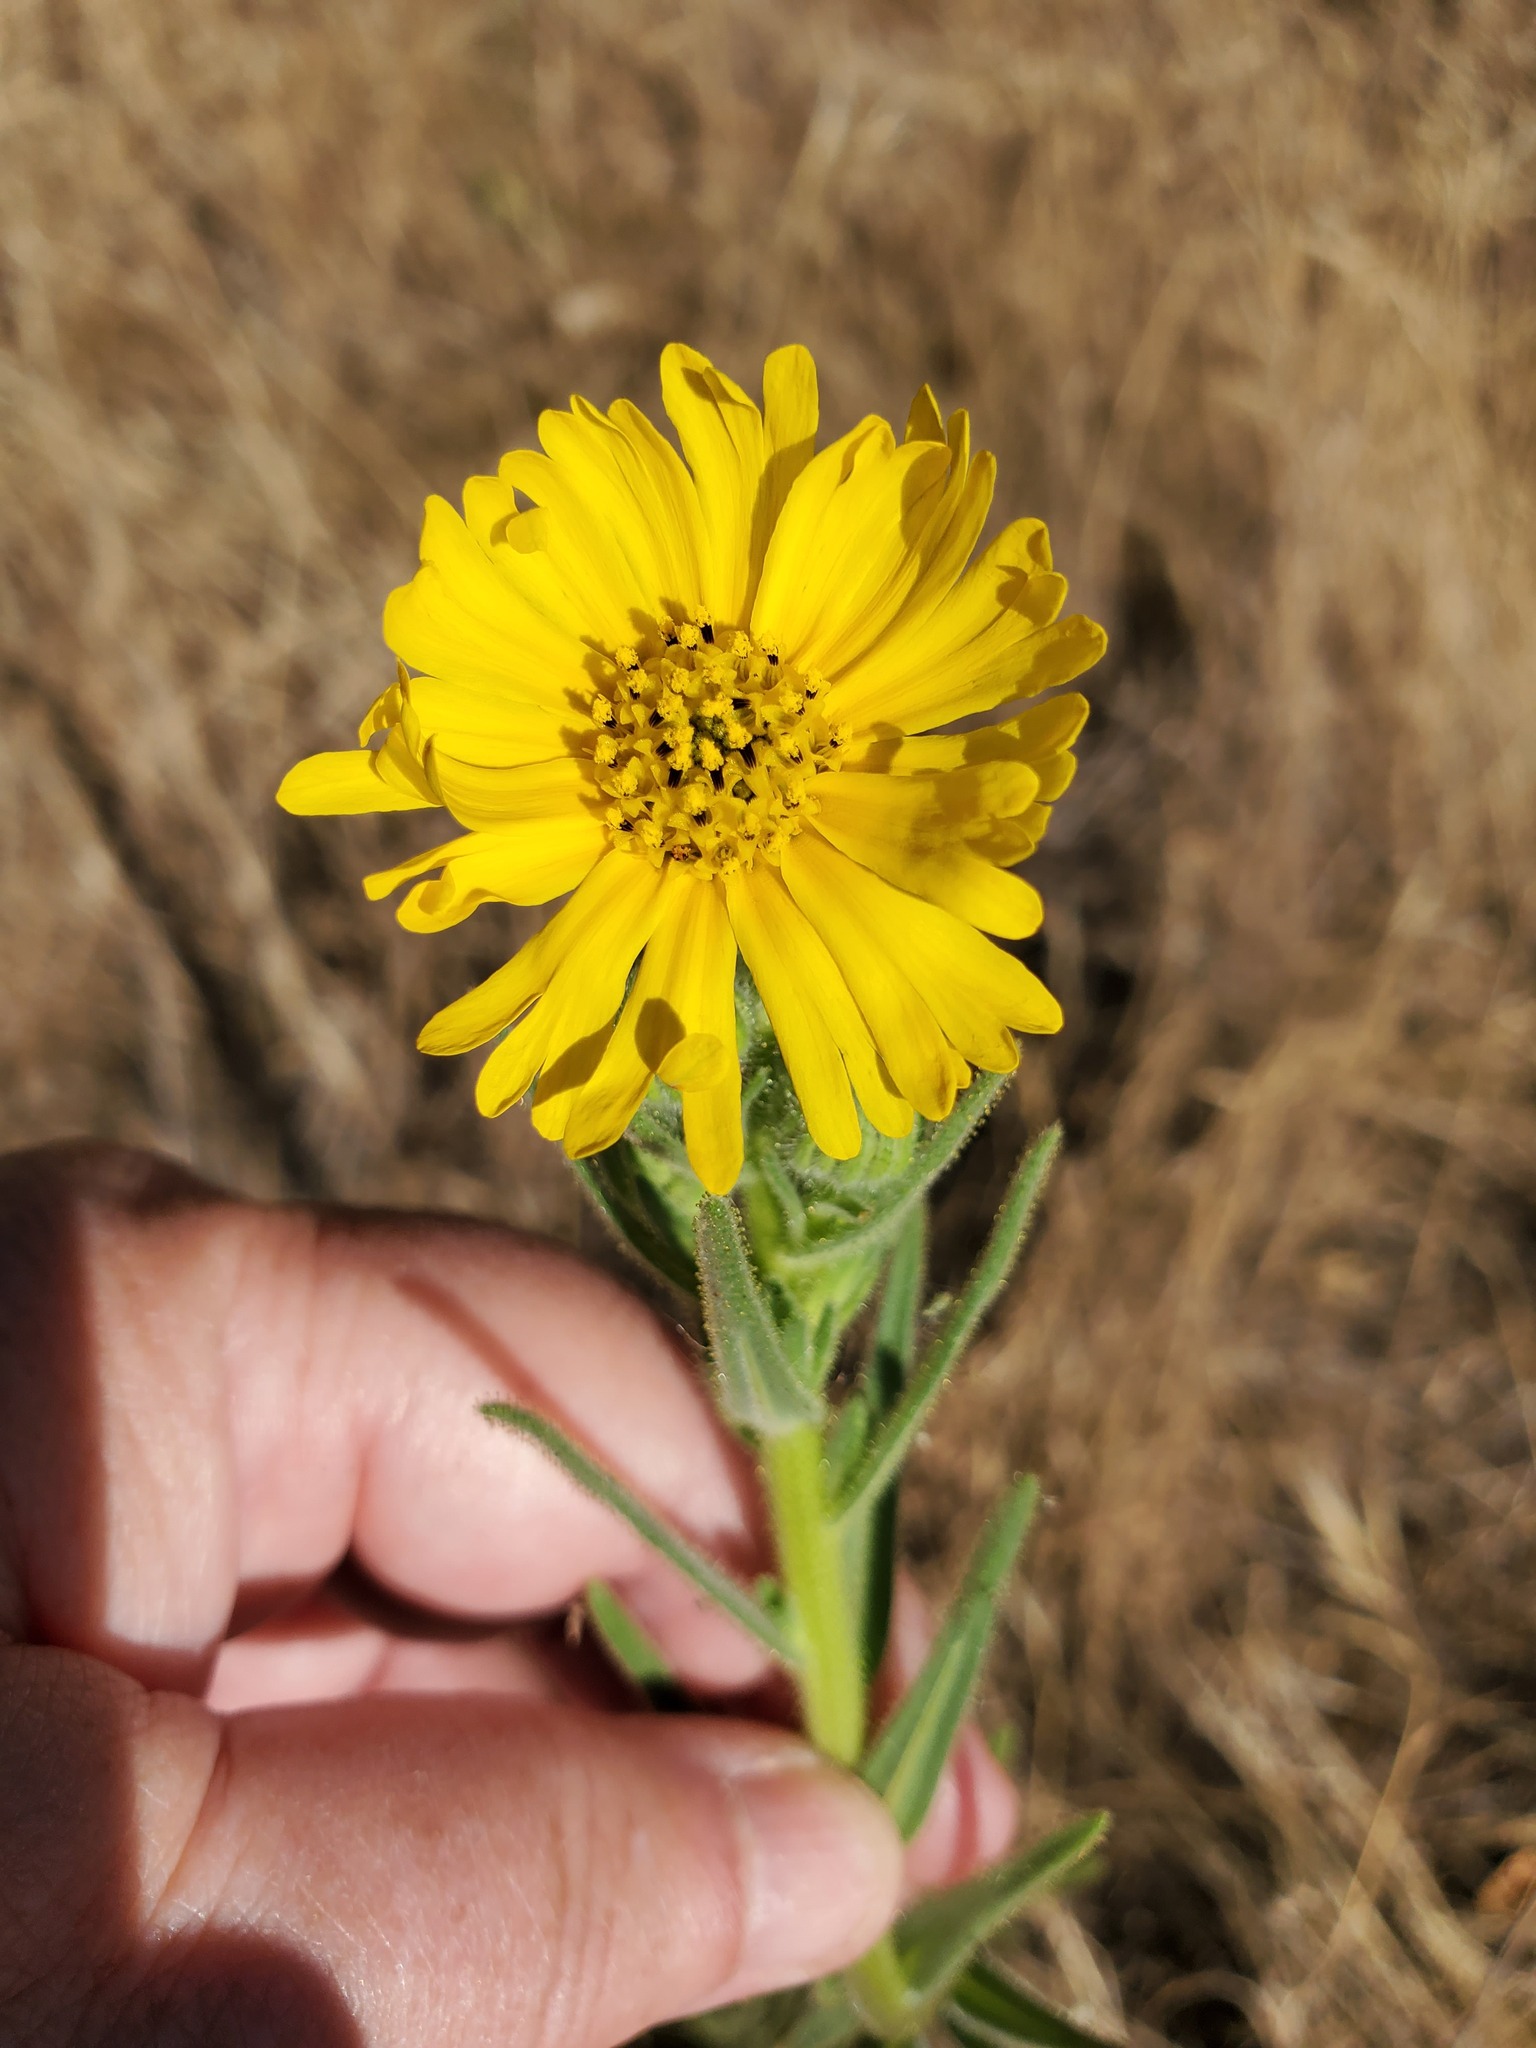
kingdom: Plantae
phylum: Tracheophyta
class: Magnoliopsida
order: Asterales
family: Asteraceae
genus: Madia
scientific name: Madia elegans
